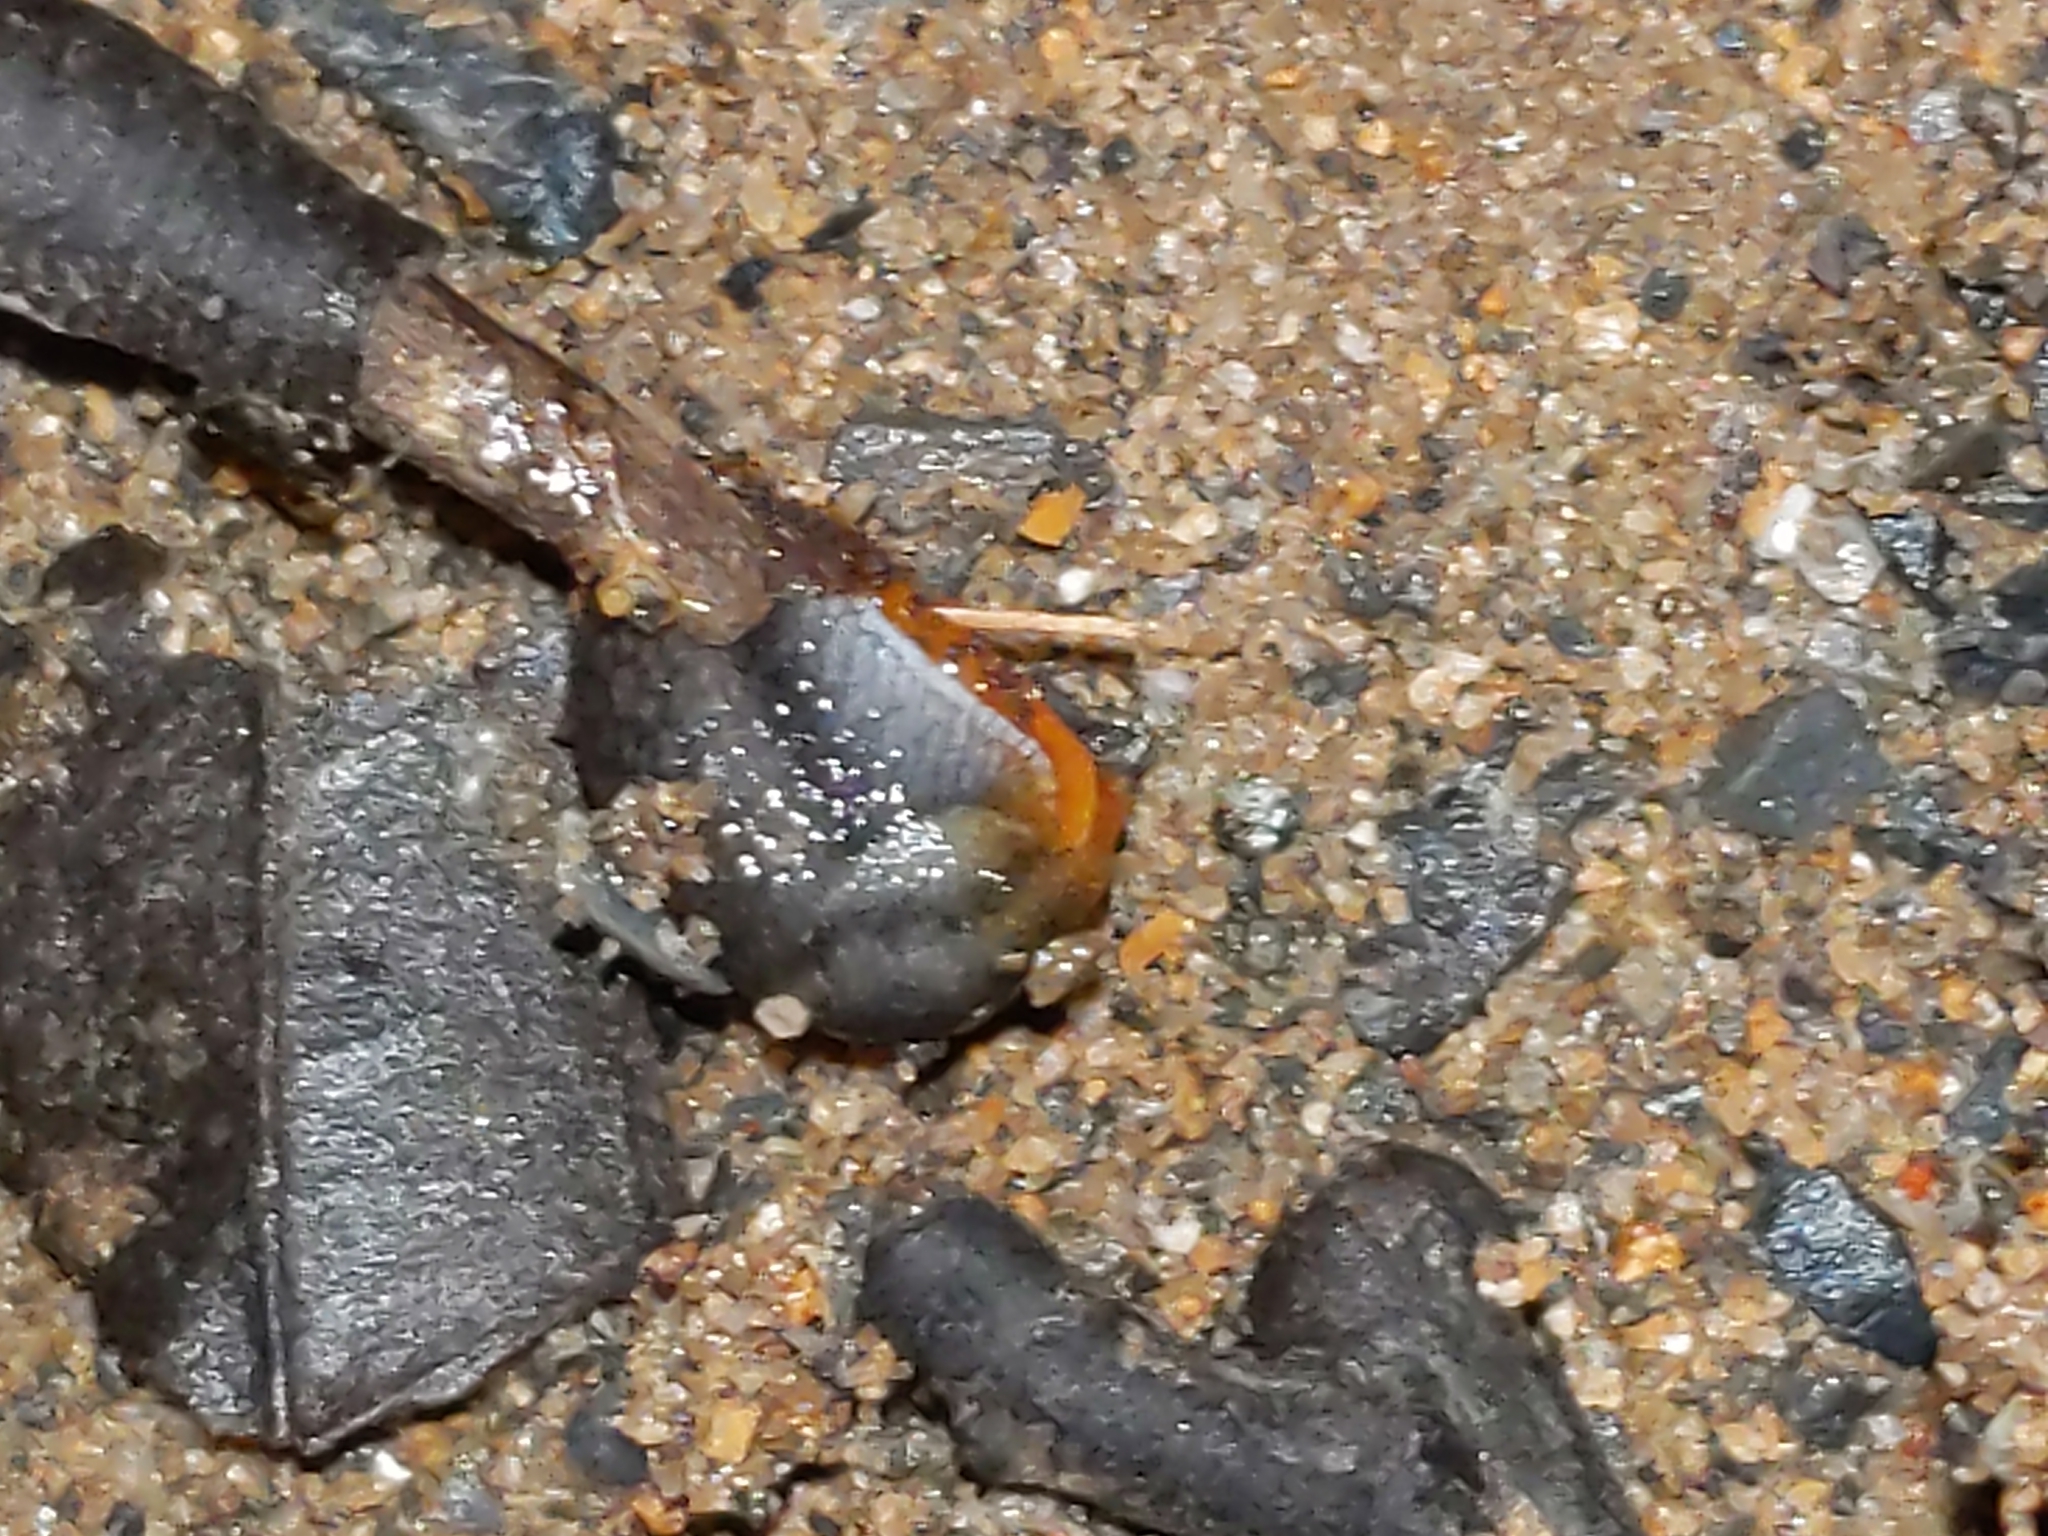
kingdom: Animalia
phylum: Mollusca
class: Gastropoda
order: Stylommatophora
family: Arionidae
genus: Arion
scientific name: Arion hortensis
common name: Garden arion
